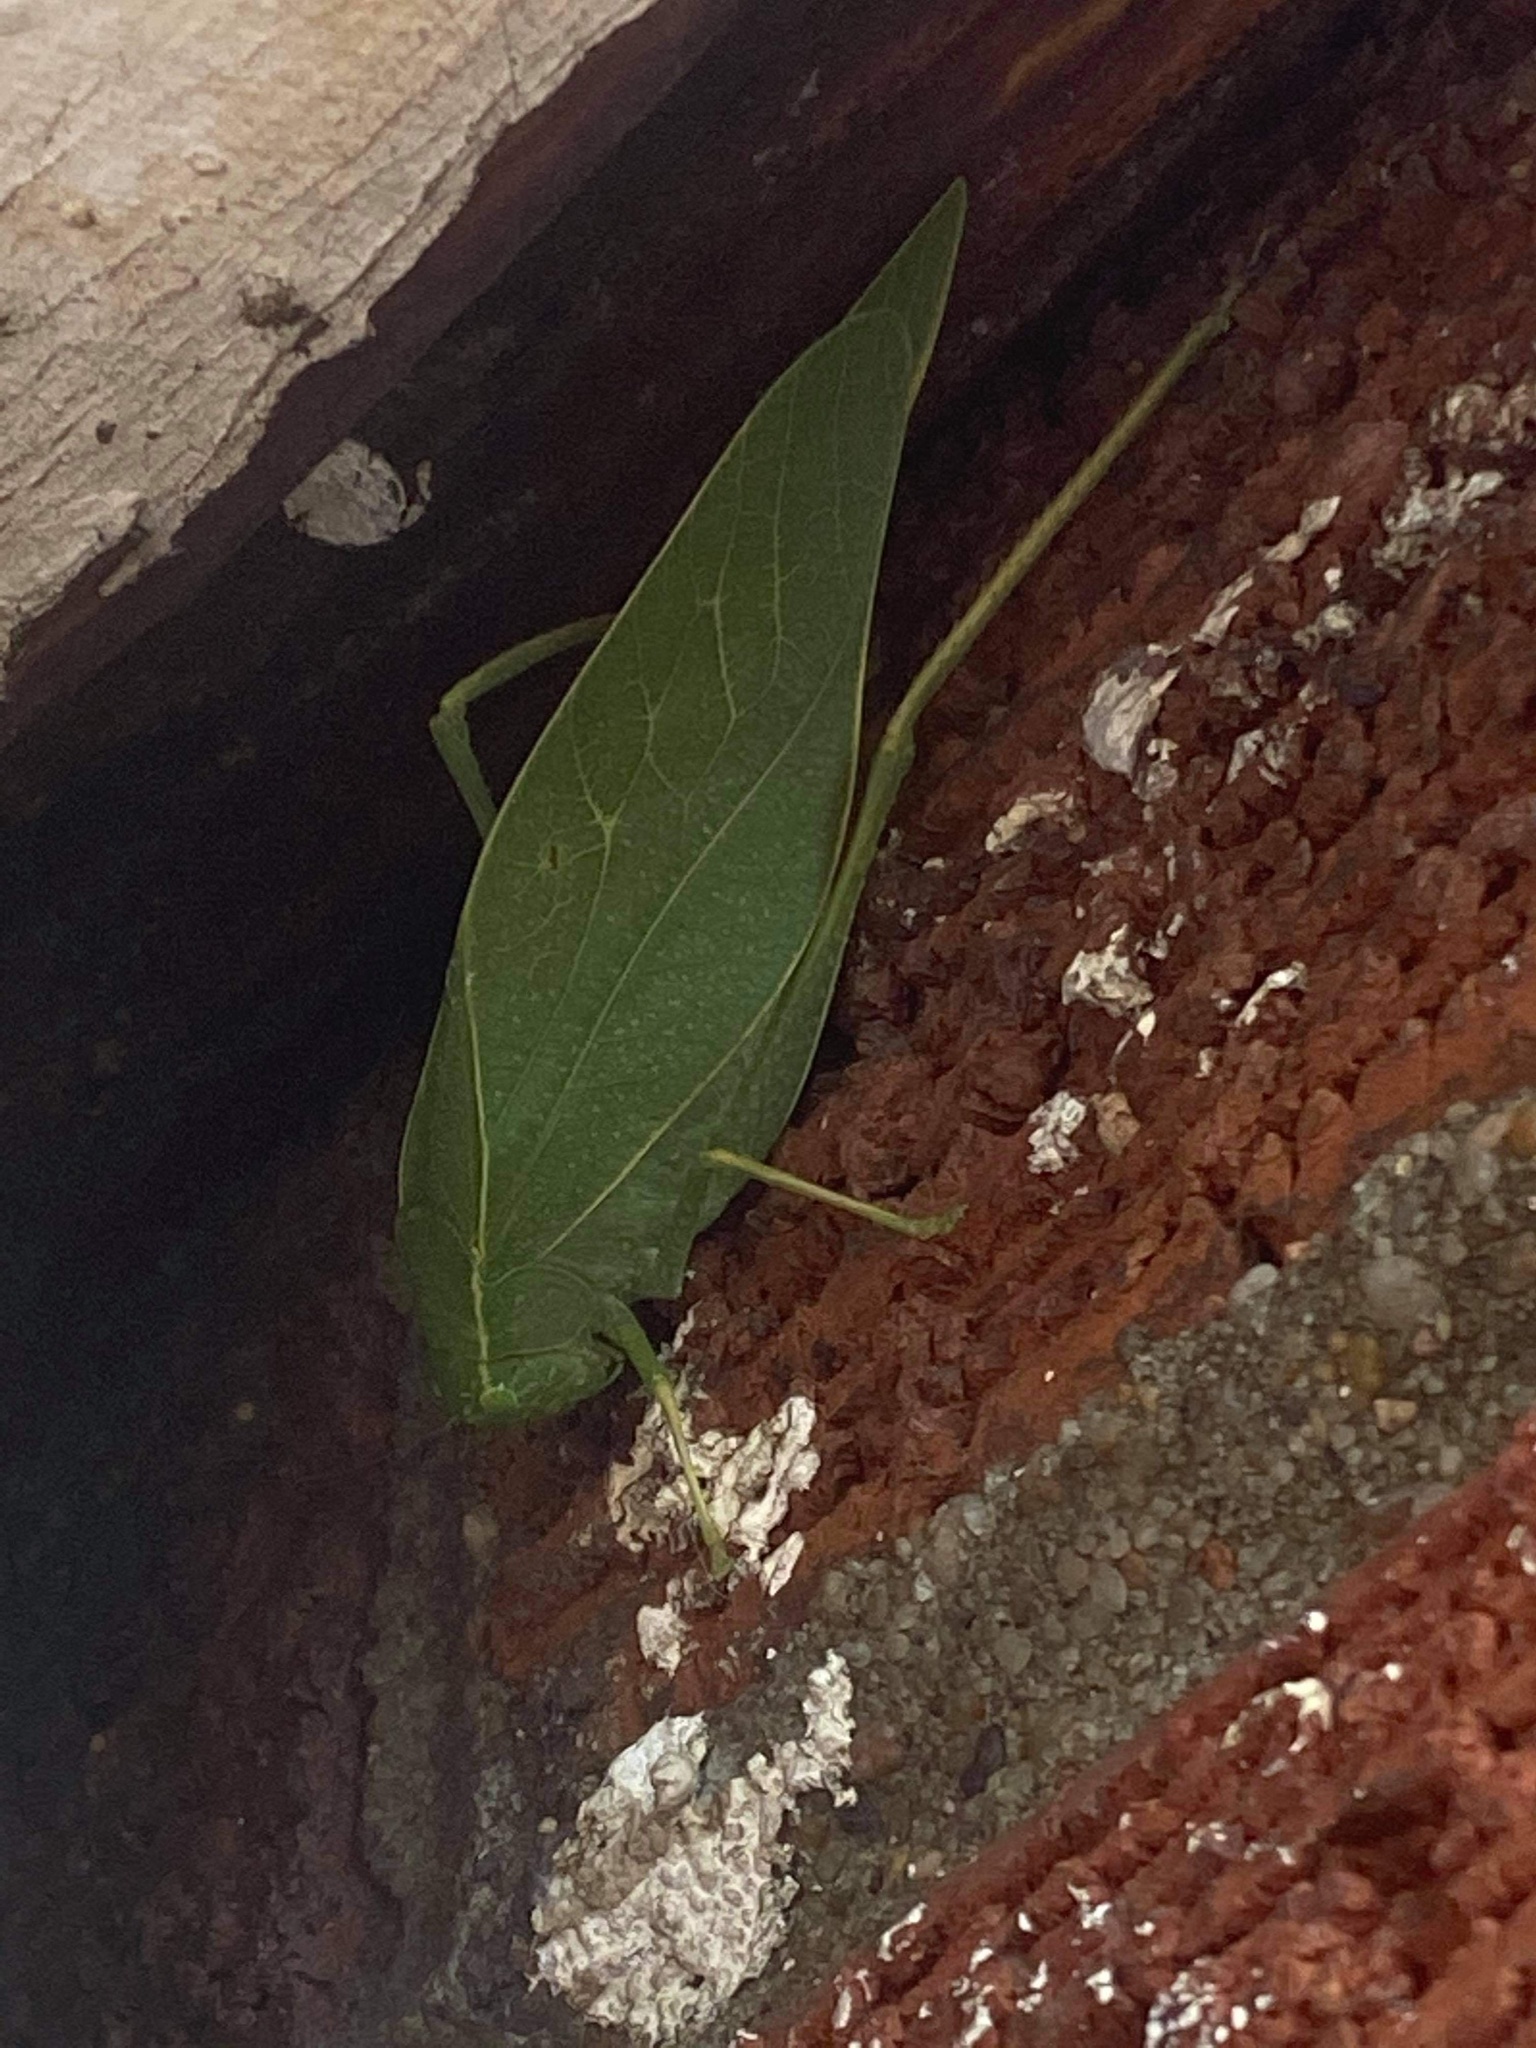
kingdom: Animalia
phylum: Arthropoda
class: Insecta
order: Orthoptera
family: Tettigoniidae
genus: Microcentrum
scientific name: Microcentrum rhombifolium
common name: Broad-winged katydid
